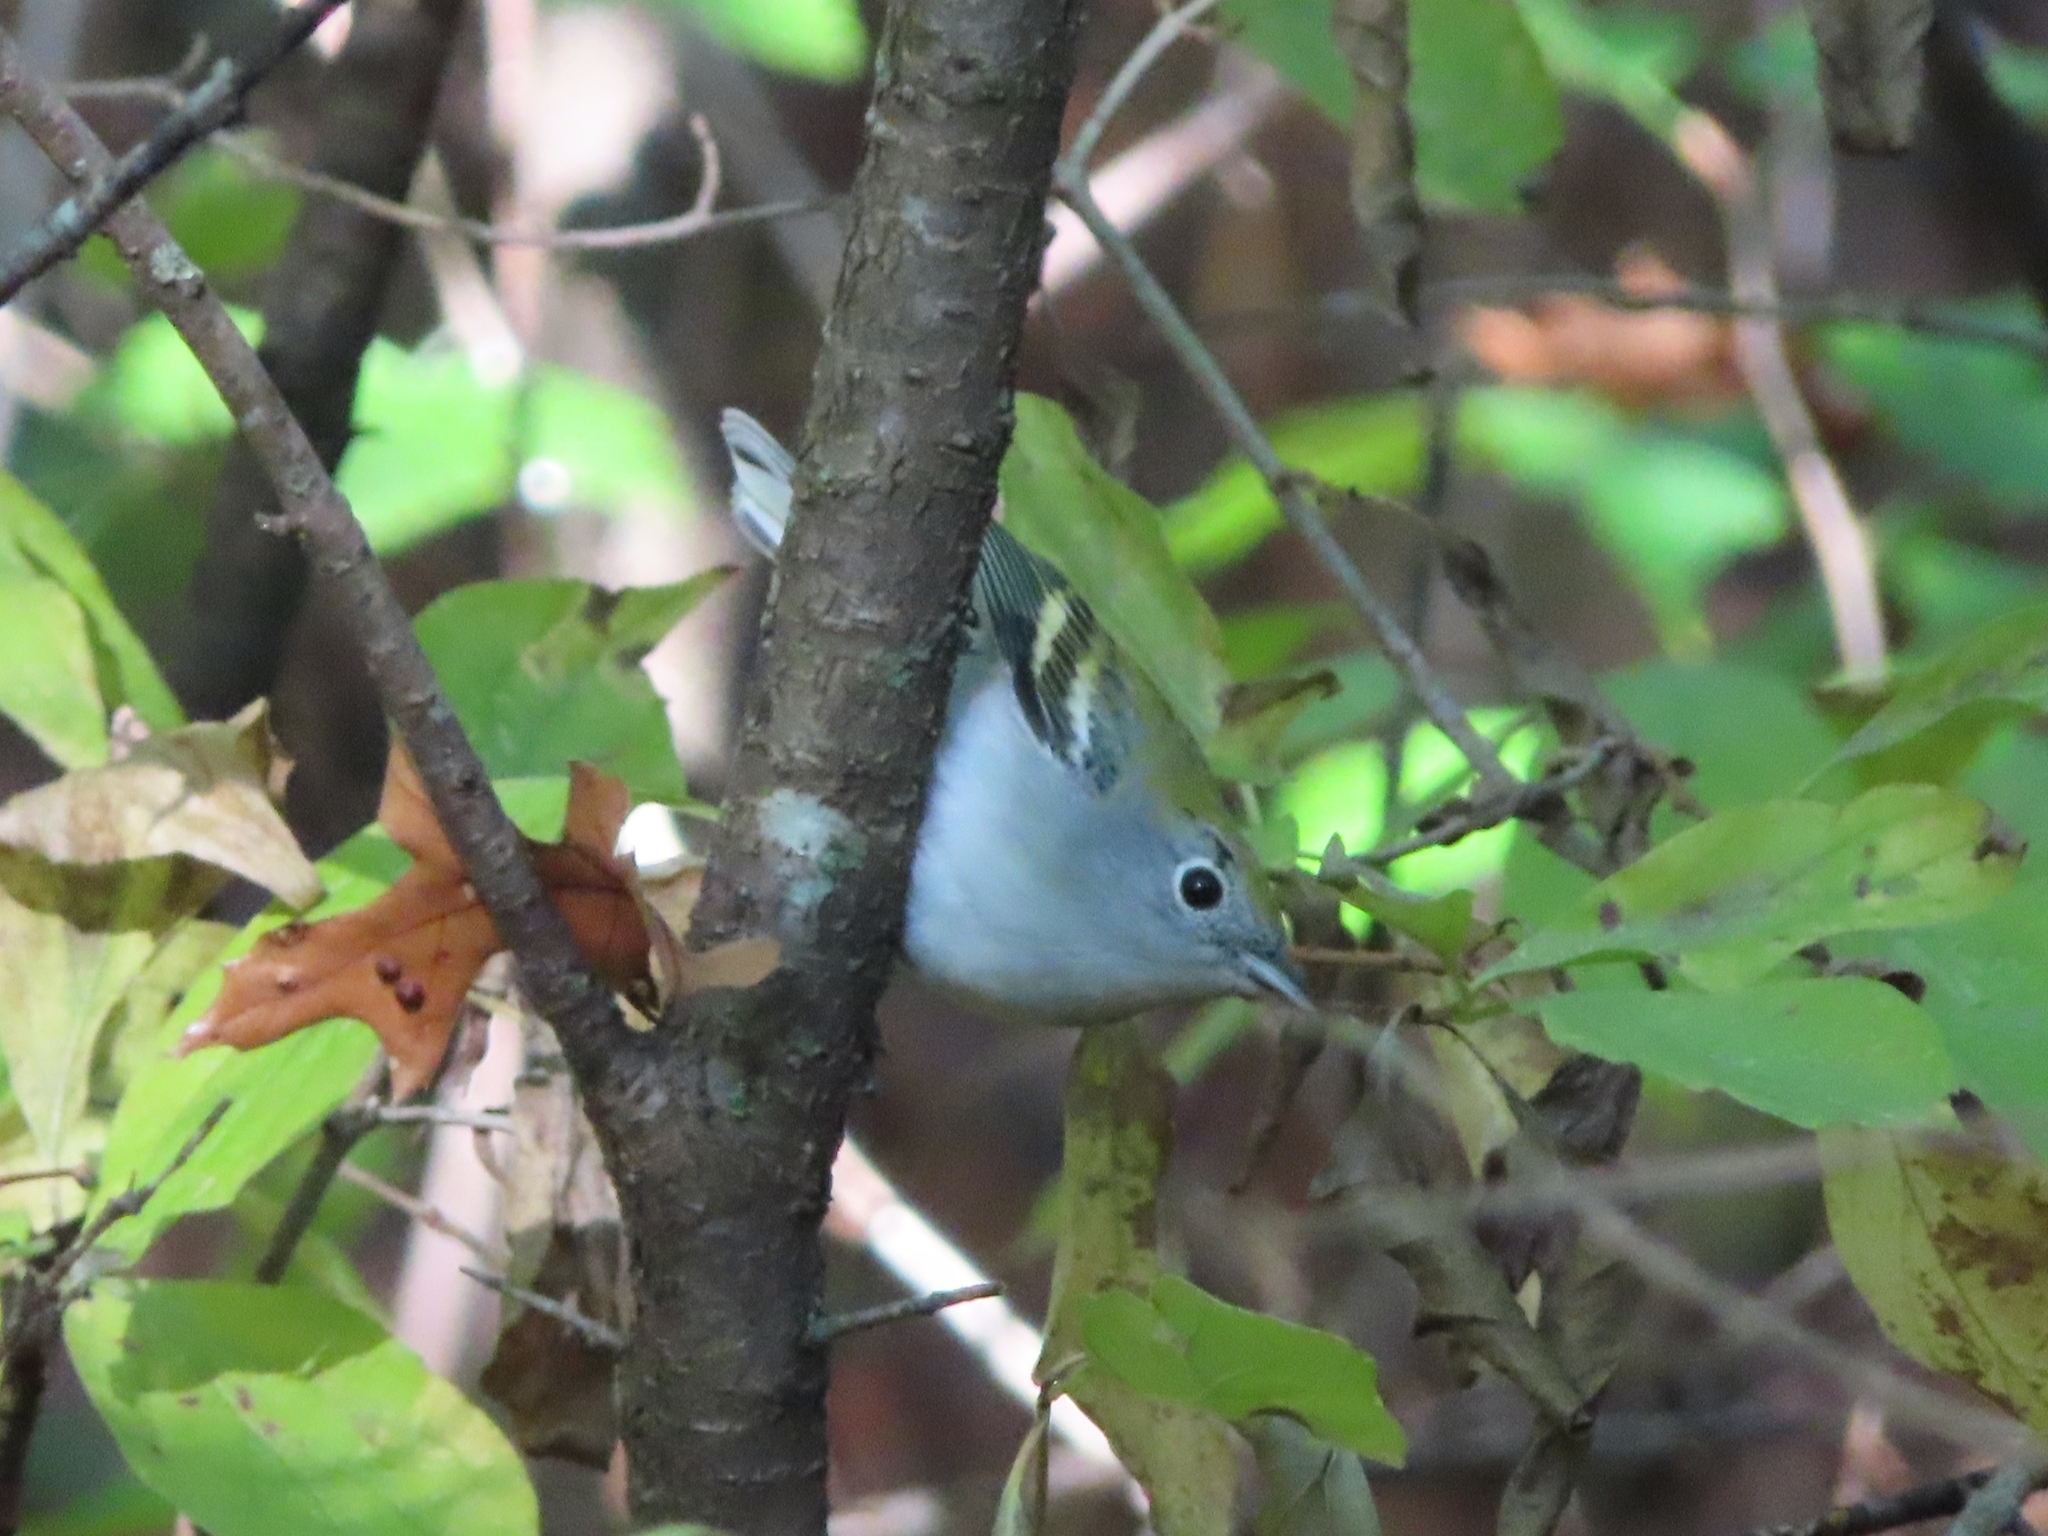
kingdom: Animalia
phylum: Chordata
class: Aves
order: Passeriformes
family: Parulidae
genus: Setophaga
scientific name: Setophaga pensylvanica
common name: Chestnut-sided warbler
